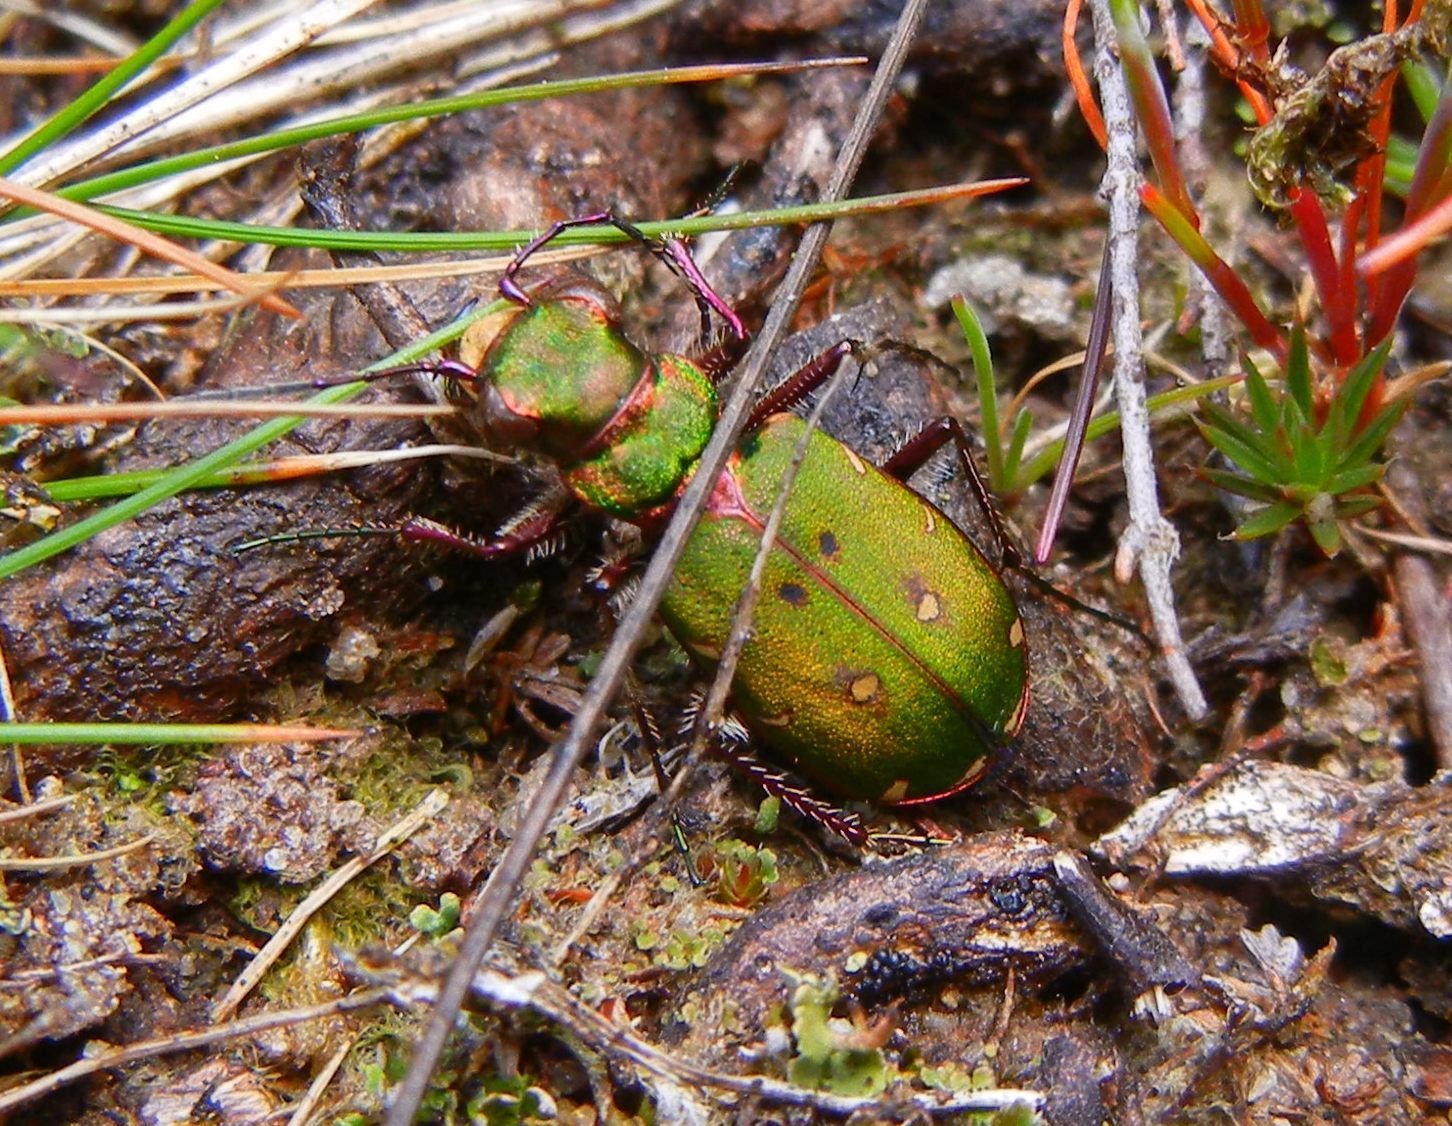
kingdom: Animalia
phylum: Arthropoda
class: Insecta
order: Coleoptera
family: Carabidae
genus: Cicindela
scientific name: Cicindela campestris
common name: Common tiger beetle
